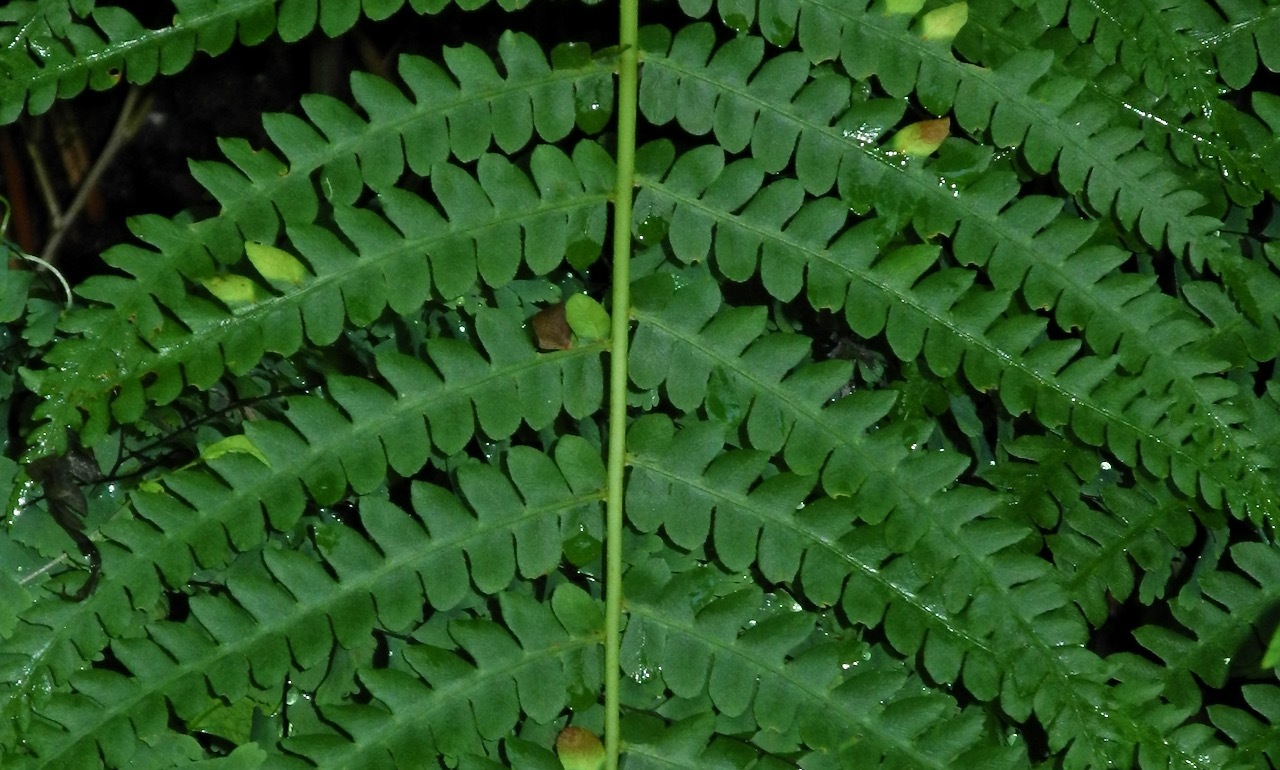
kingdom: Plantae
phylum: Tracheophyta
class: Polypodiopsida
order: Osmundales
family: Osmundaceae
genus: Osmundastrum
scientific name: Osmundastrum cinnamomeum
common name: Cinnamon fern
